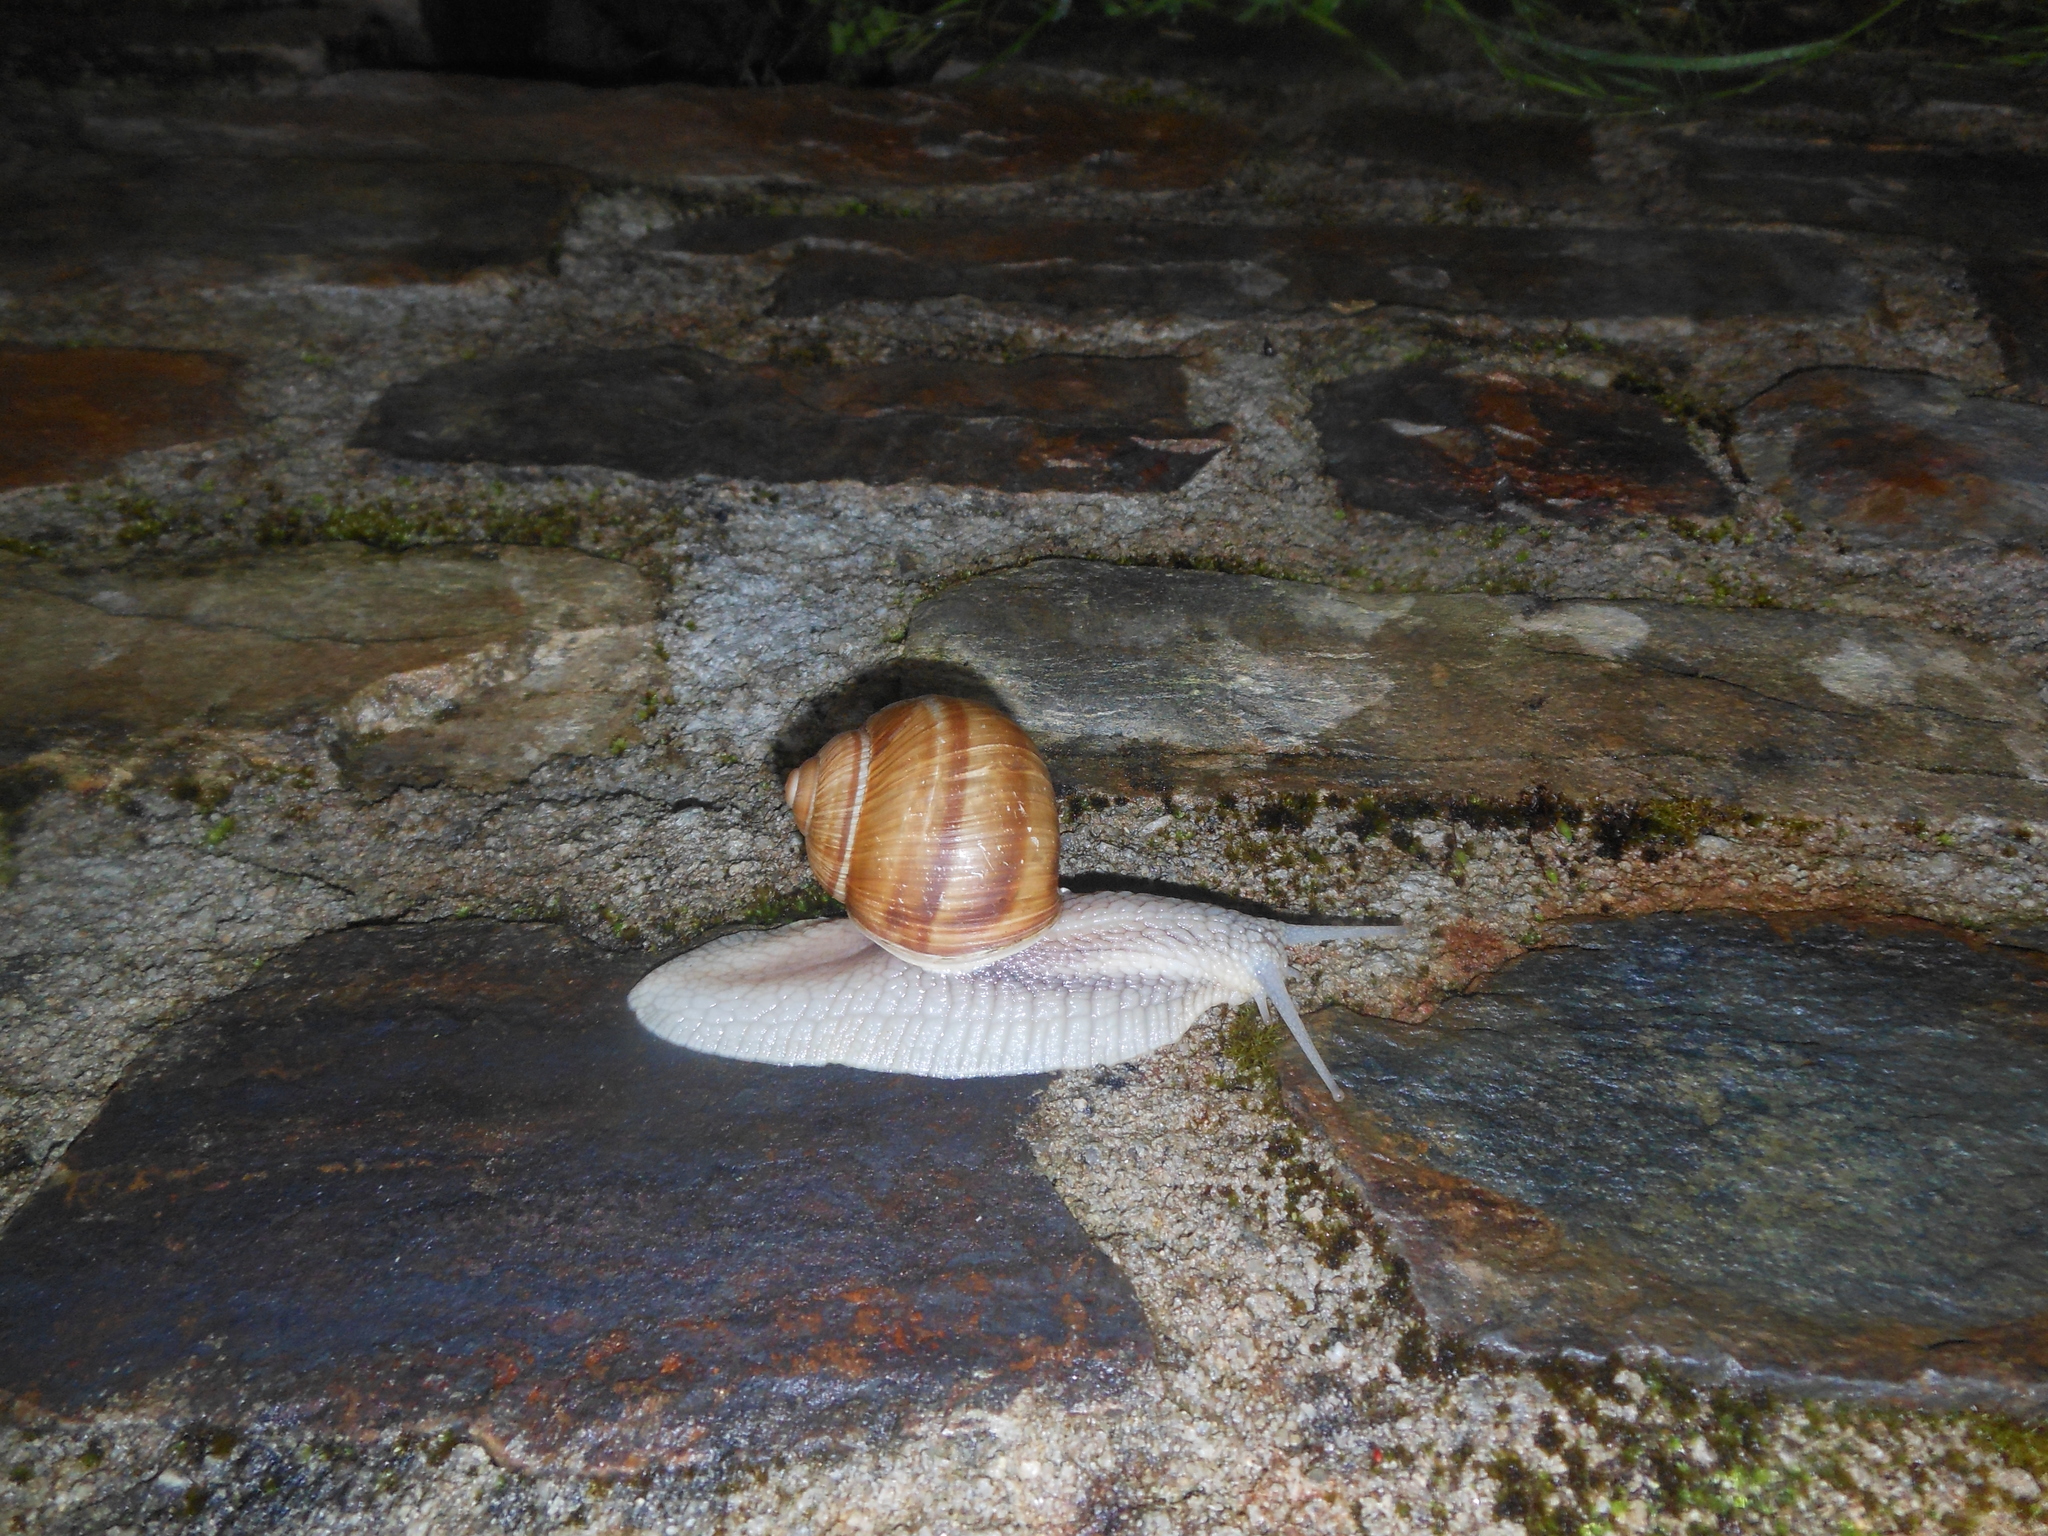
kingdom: Animalia
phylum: Mollusca
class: Gastropoda
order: Stylommatophora
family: Helicidae
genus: Helix
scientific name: Helix pomatia
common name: Roman snail
